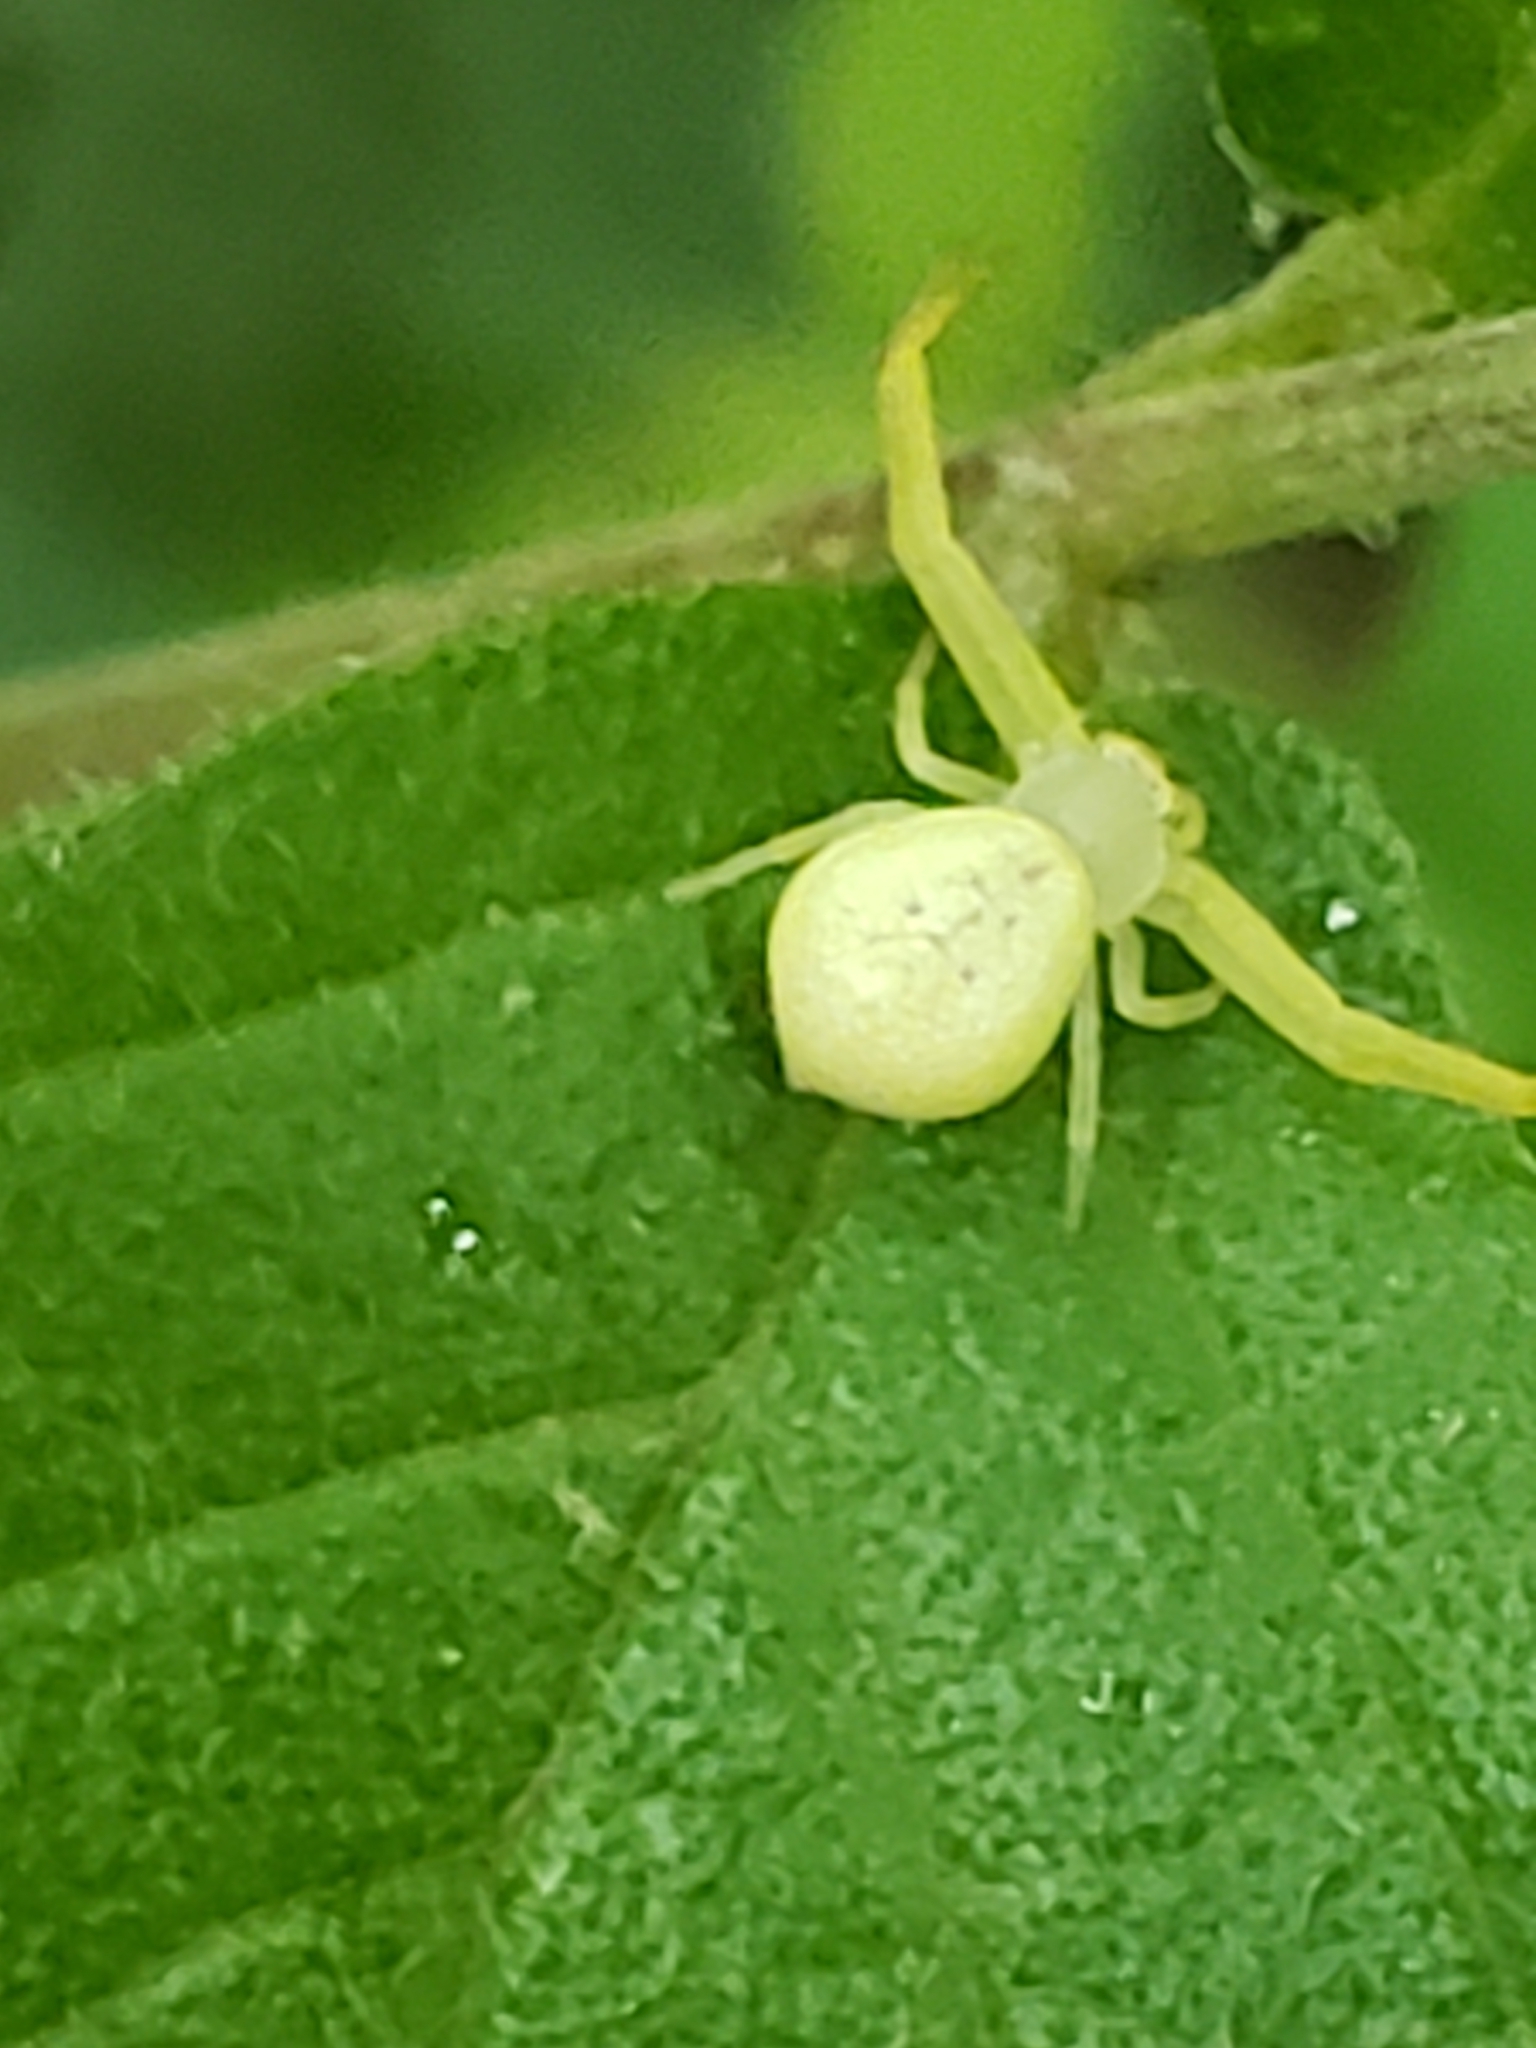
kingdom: Animalia
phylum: Arthropoda
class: Arachnida
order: Araneae
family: Thomisidae
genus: Misumessus
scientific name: Misumessus oblongus
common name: American green crab spider
